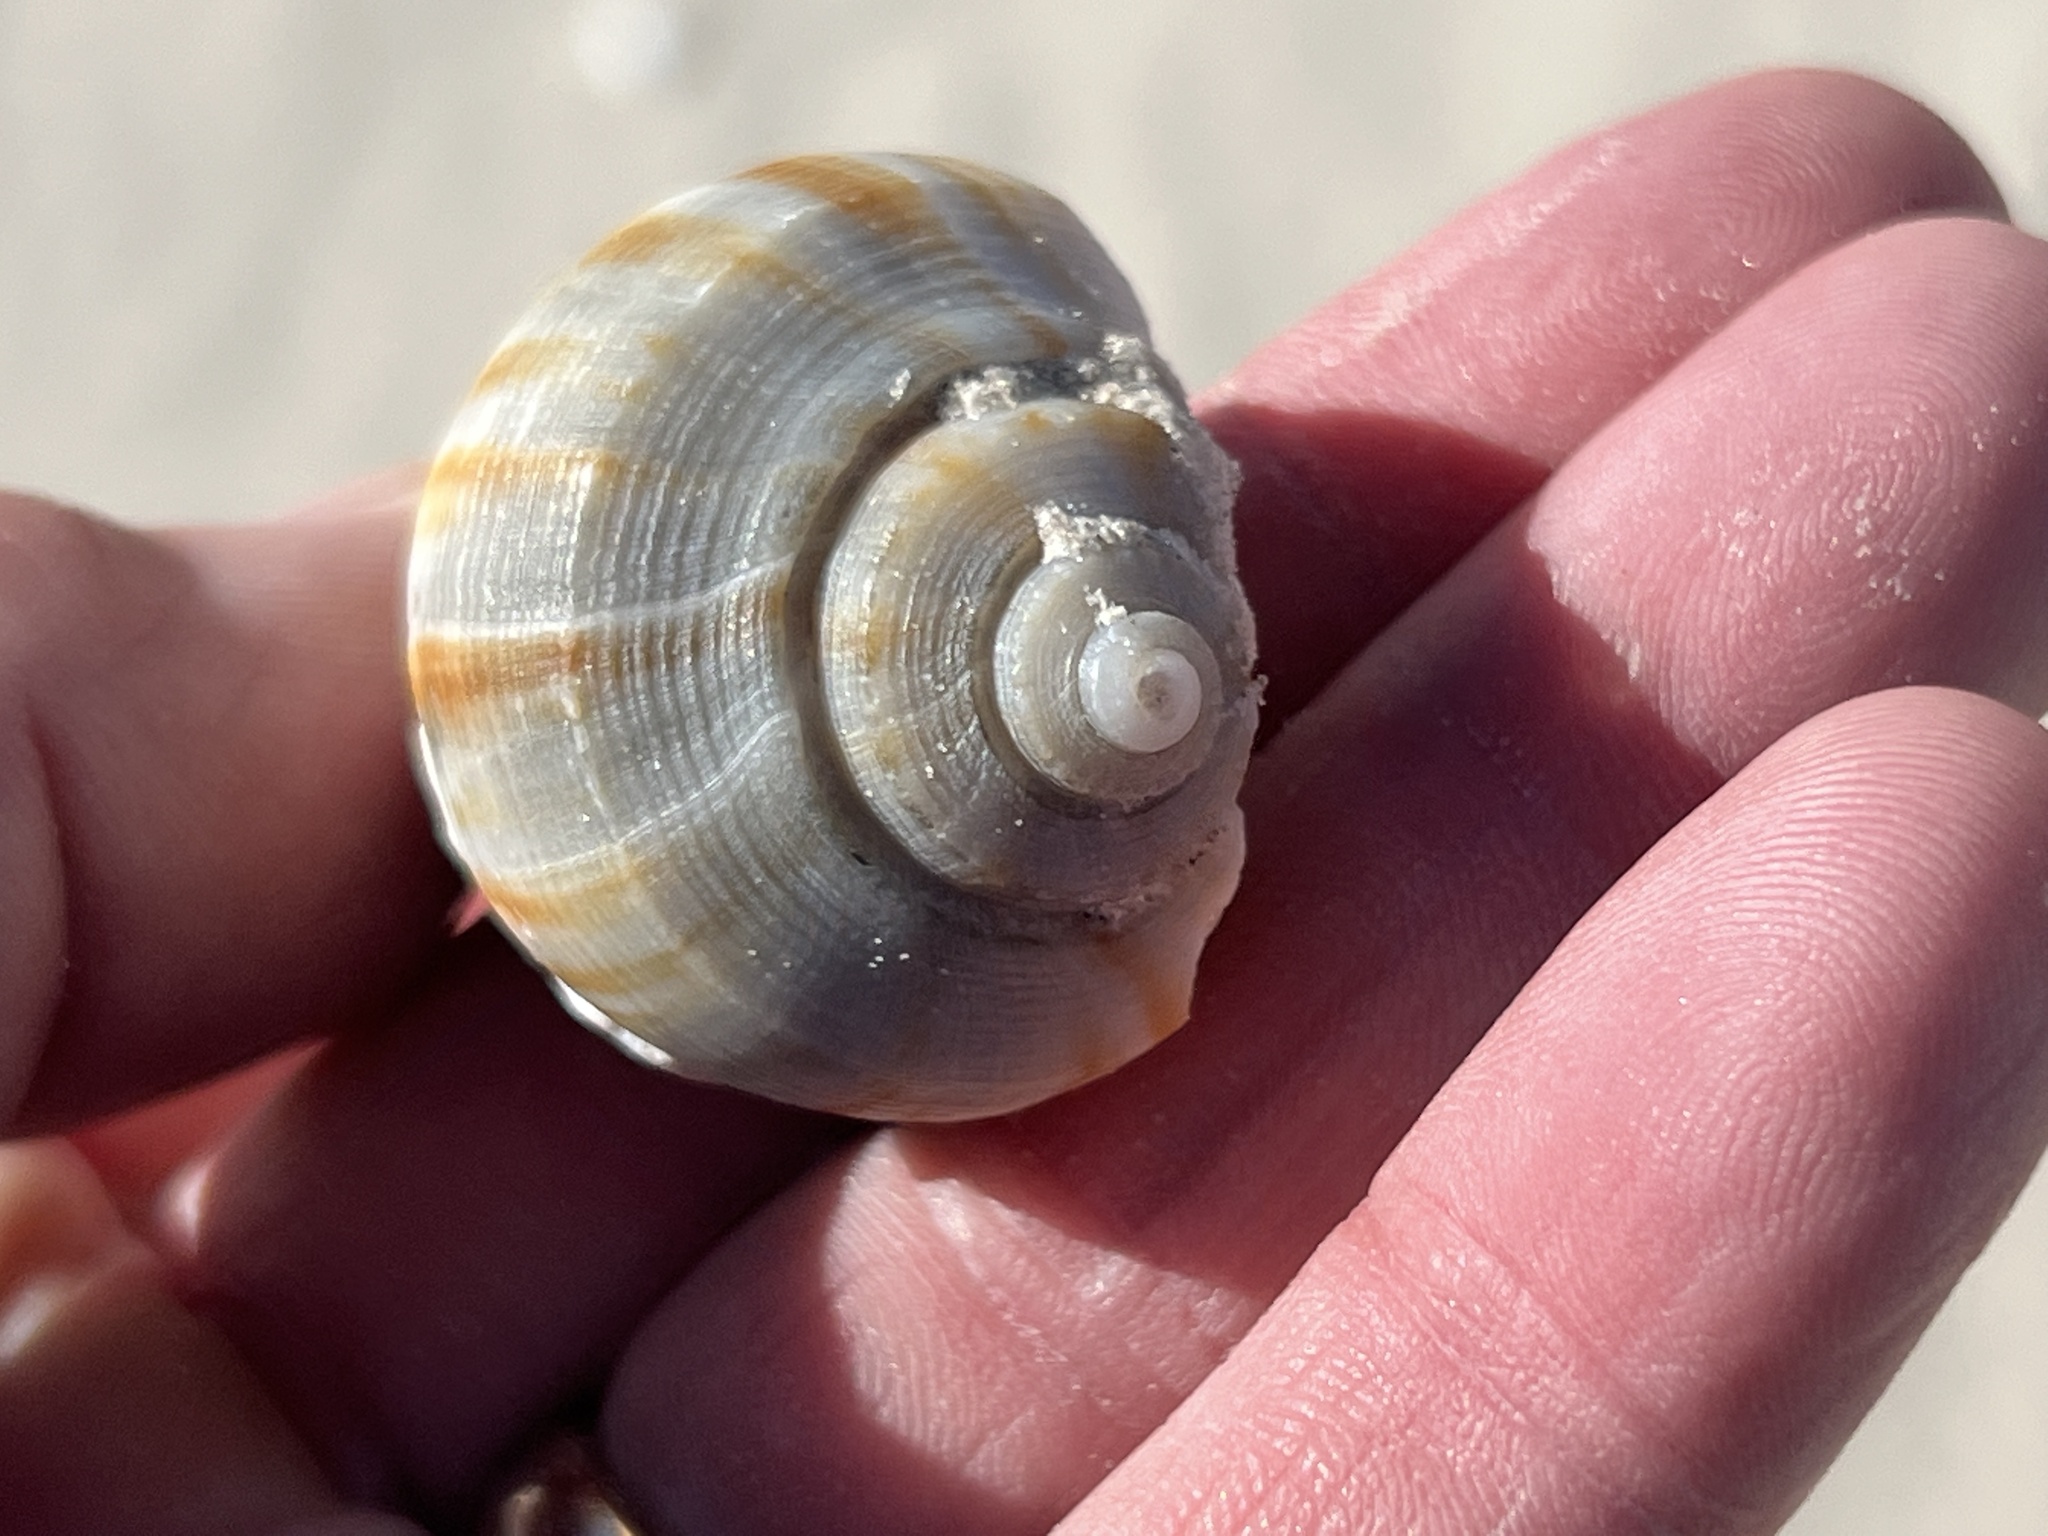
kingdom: Animalia
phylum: Mollusca
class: Gastropoda
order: Neogastropoda
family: Busyconidae
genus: Fulguropsis
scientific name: Fulguropsis spirata
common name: Pear whelk
